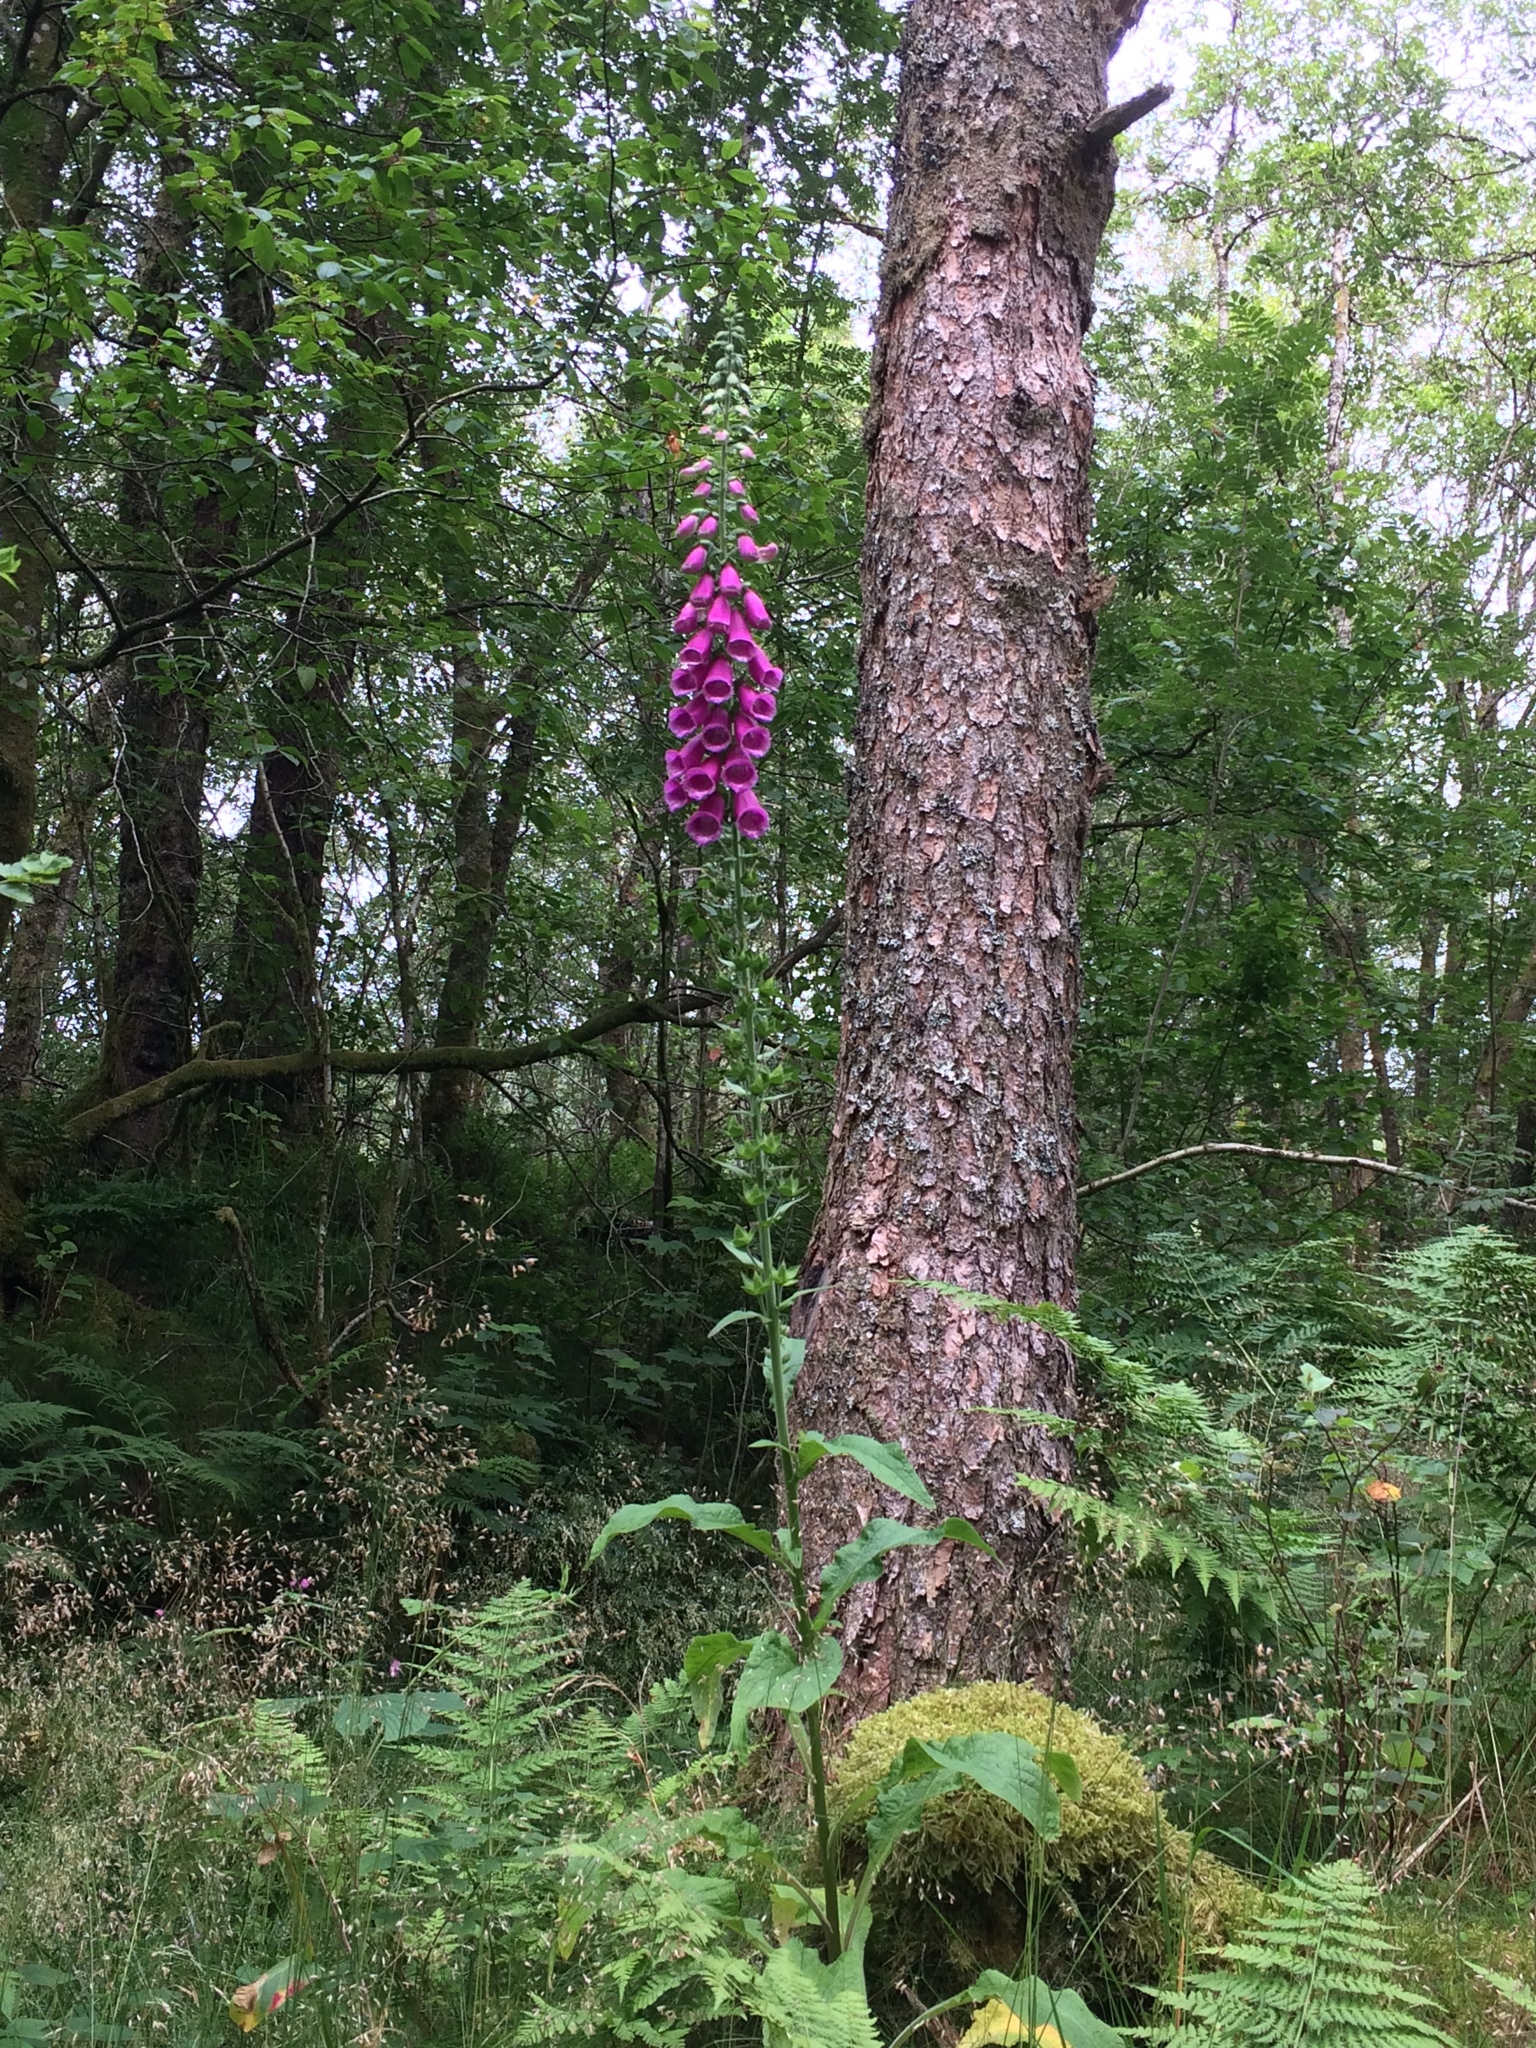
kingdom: Plantae
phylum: Tracheophyta
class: Magnoliopsida
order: Lamiales
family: Plantaginaceae
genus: Digitalis
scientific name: Digitalis purpurea
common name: Foxglove
